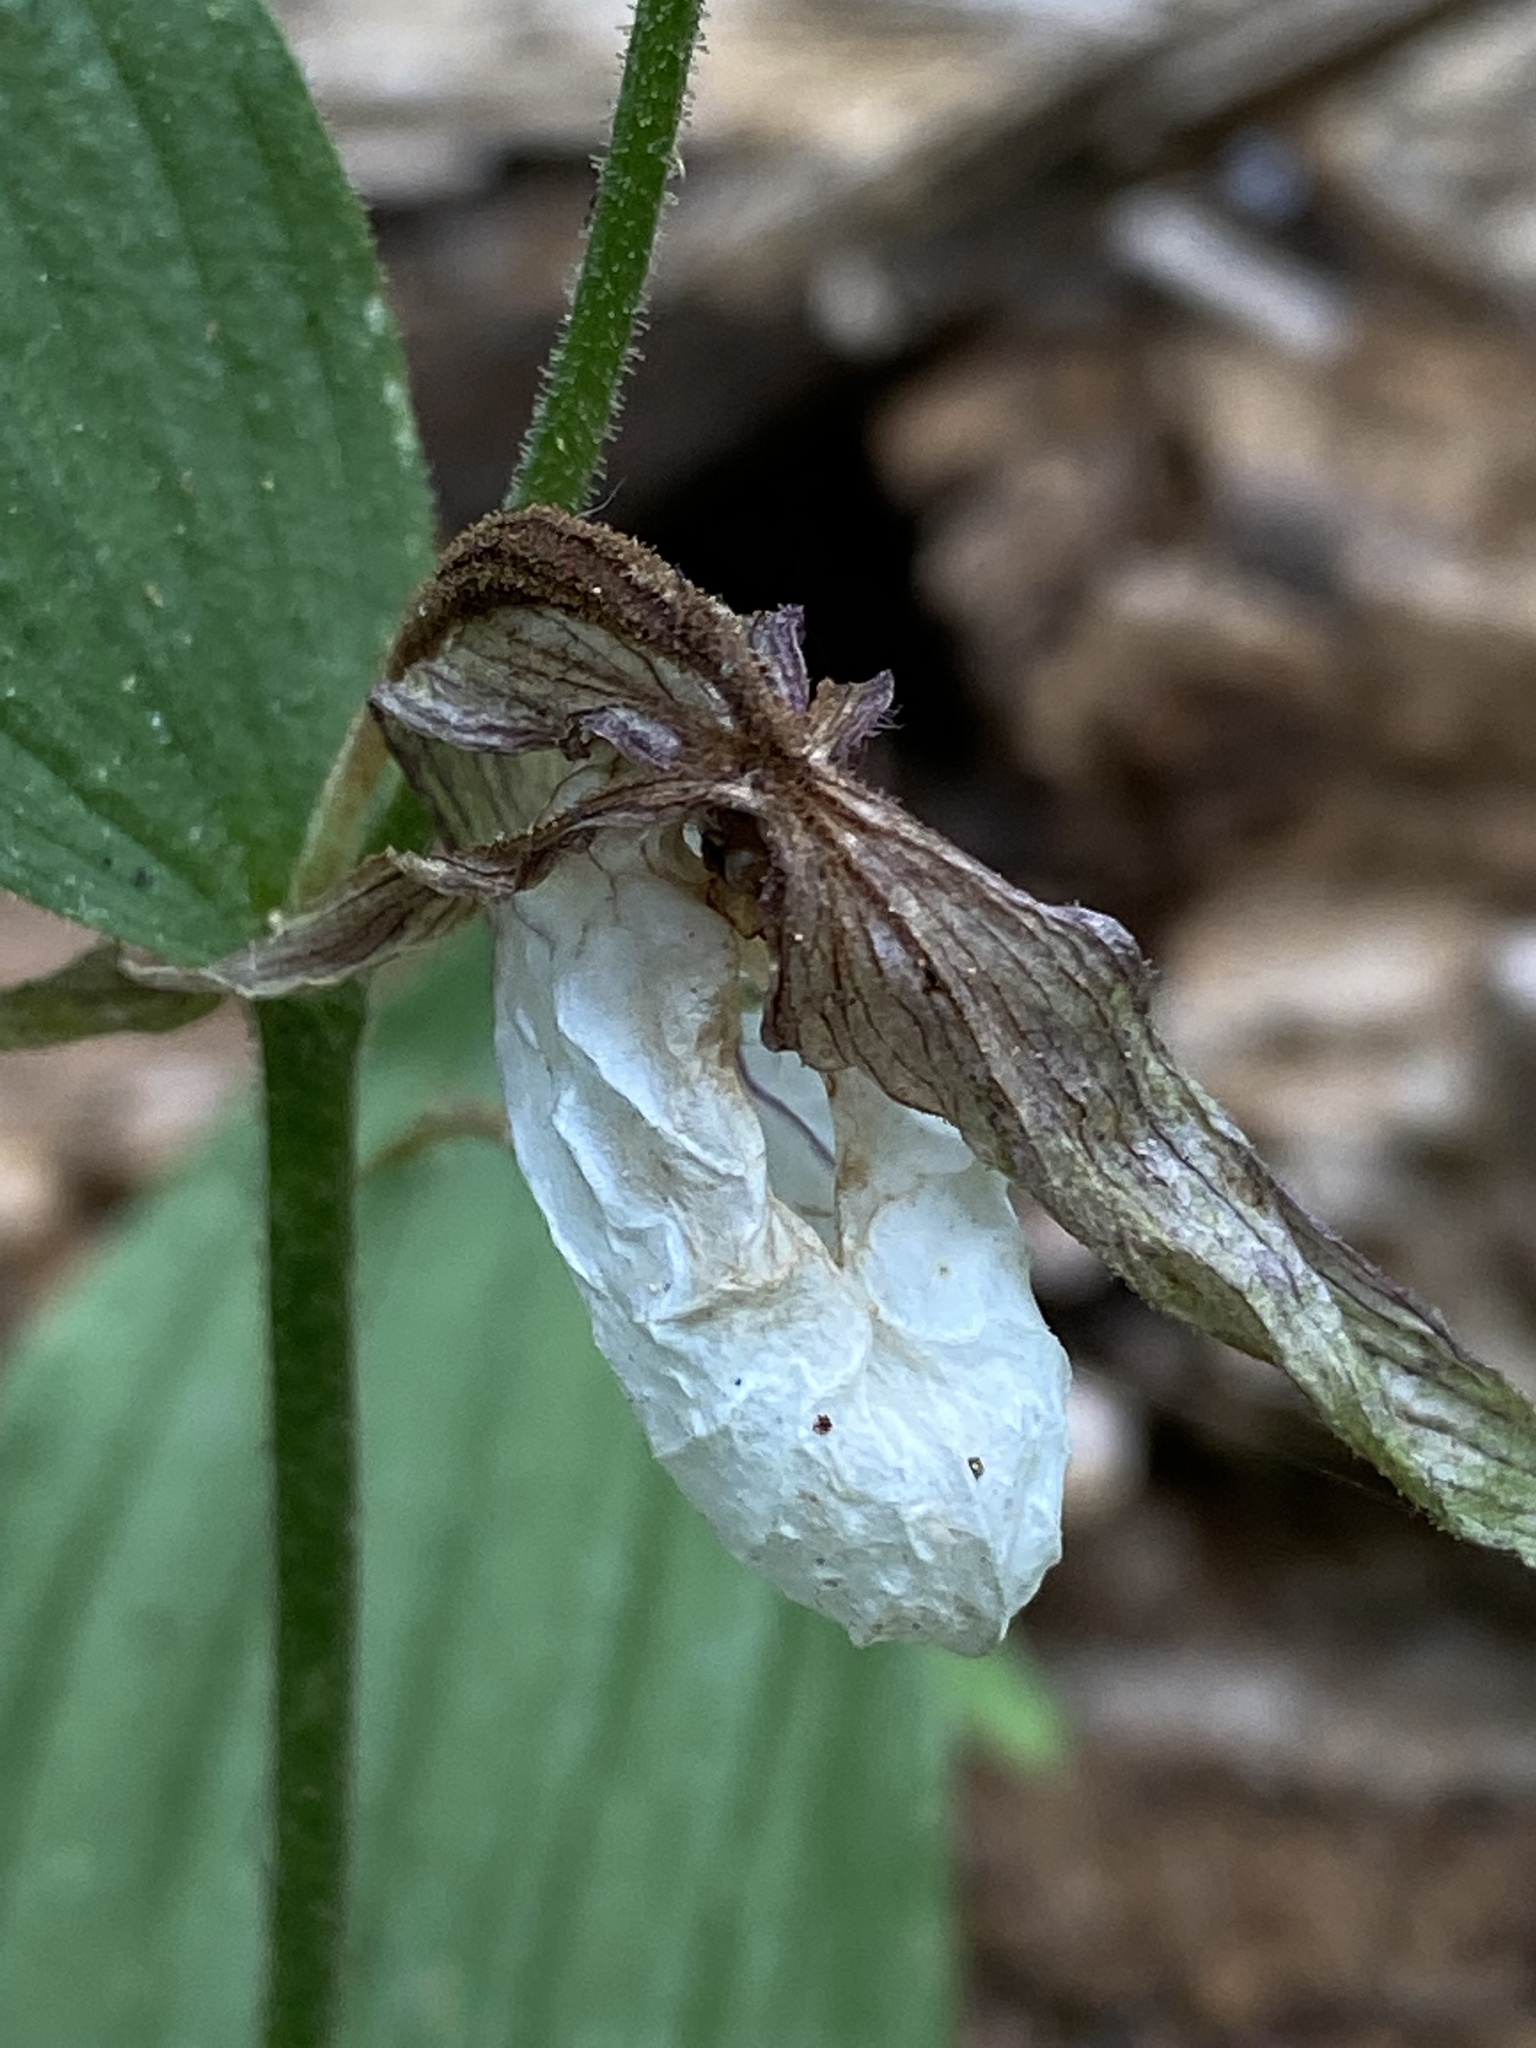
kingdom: Plantae
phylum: Tracheophyta
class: Liliopsida
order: Asparagales
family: Orchidaceae
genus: Cypripedium
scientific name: Cypripedium montanum
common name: Mountain lady's-slipper
